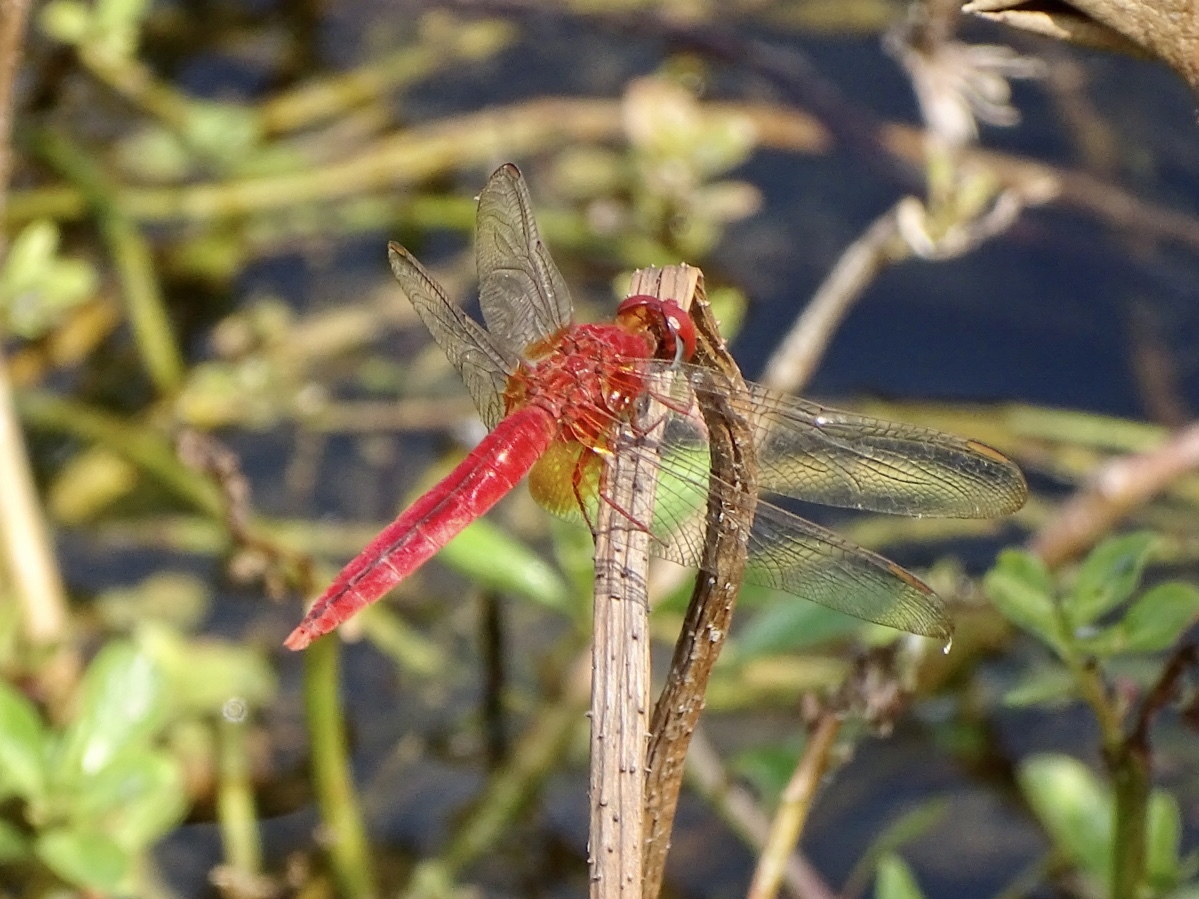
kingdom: Animalia
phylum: Arthropoda
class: Insecta
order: Odonata
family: Libellulidae
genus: Crocothemis
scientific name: Crocothemis servilia
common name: Scarlet skimmer
